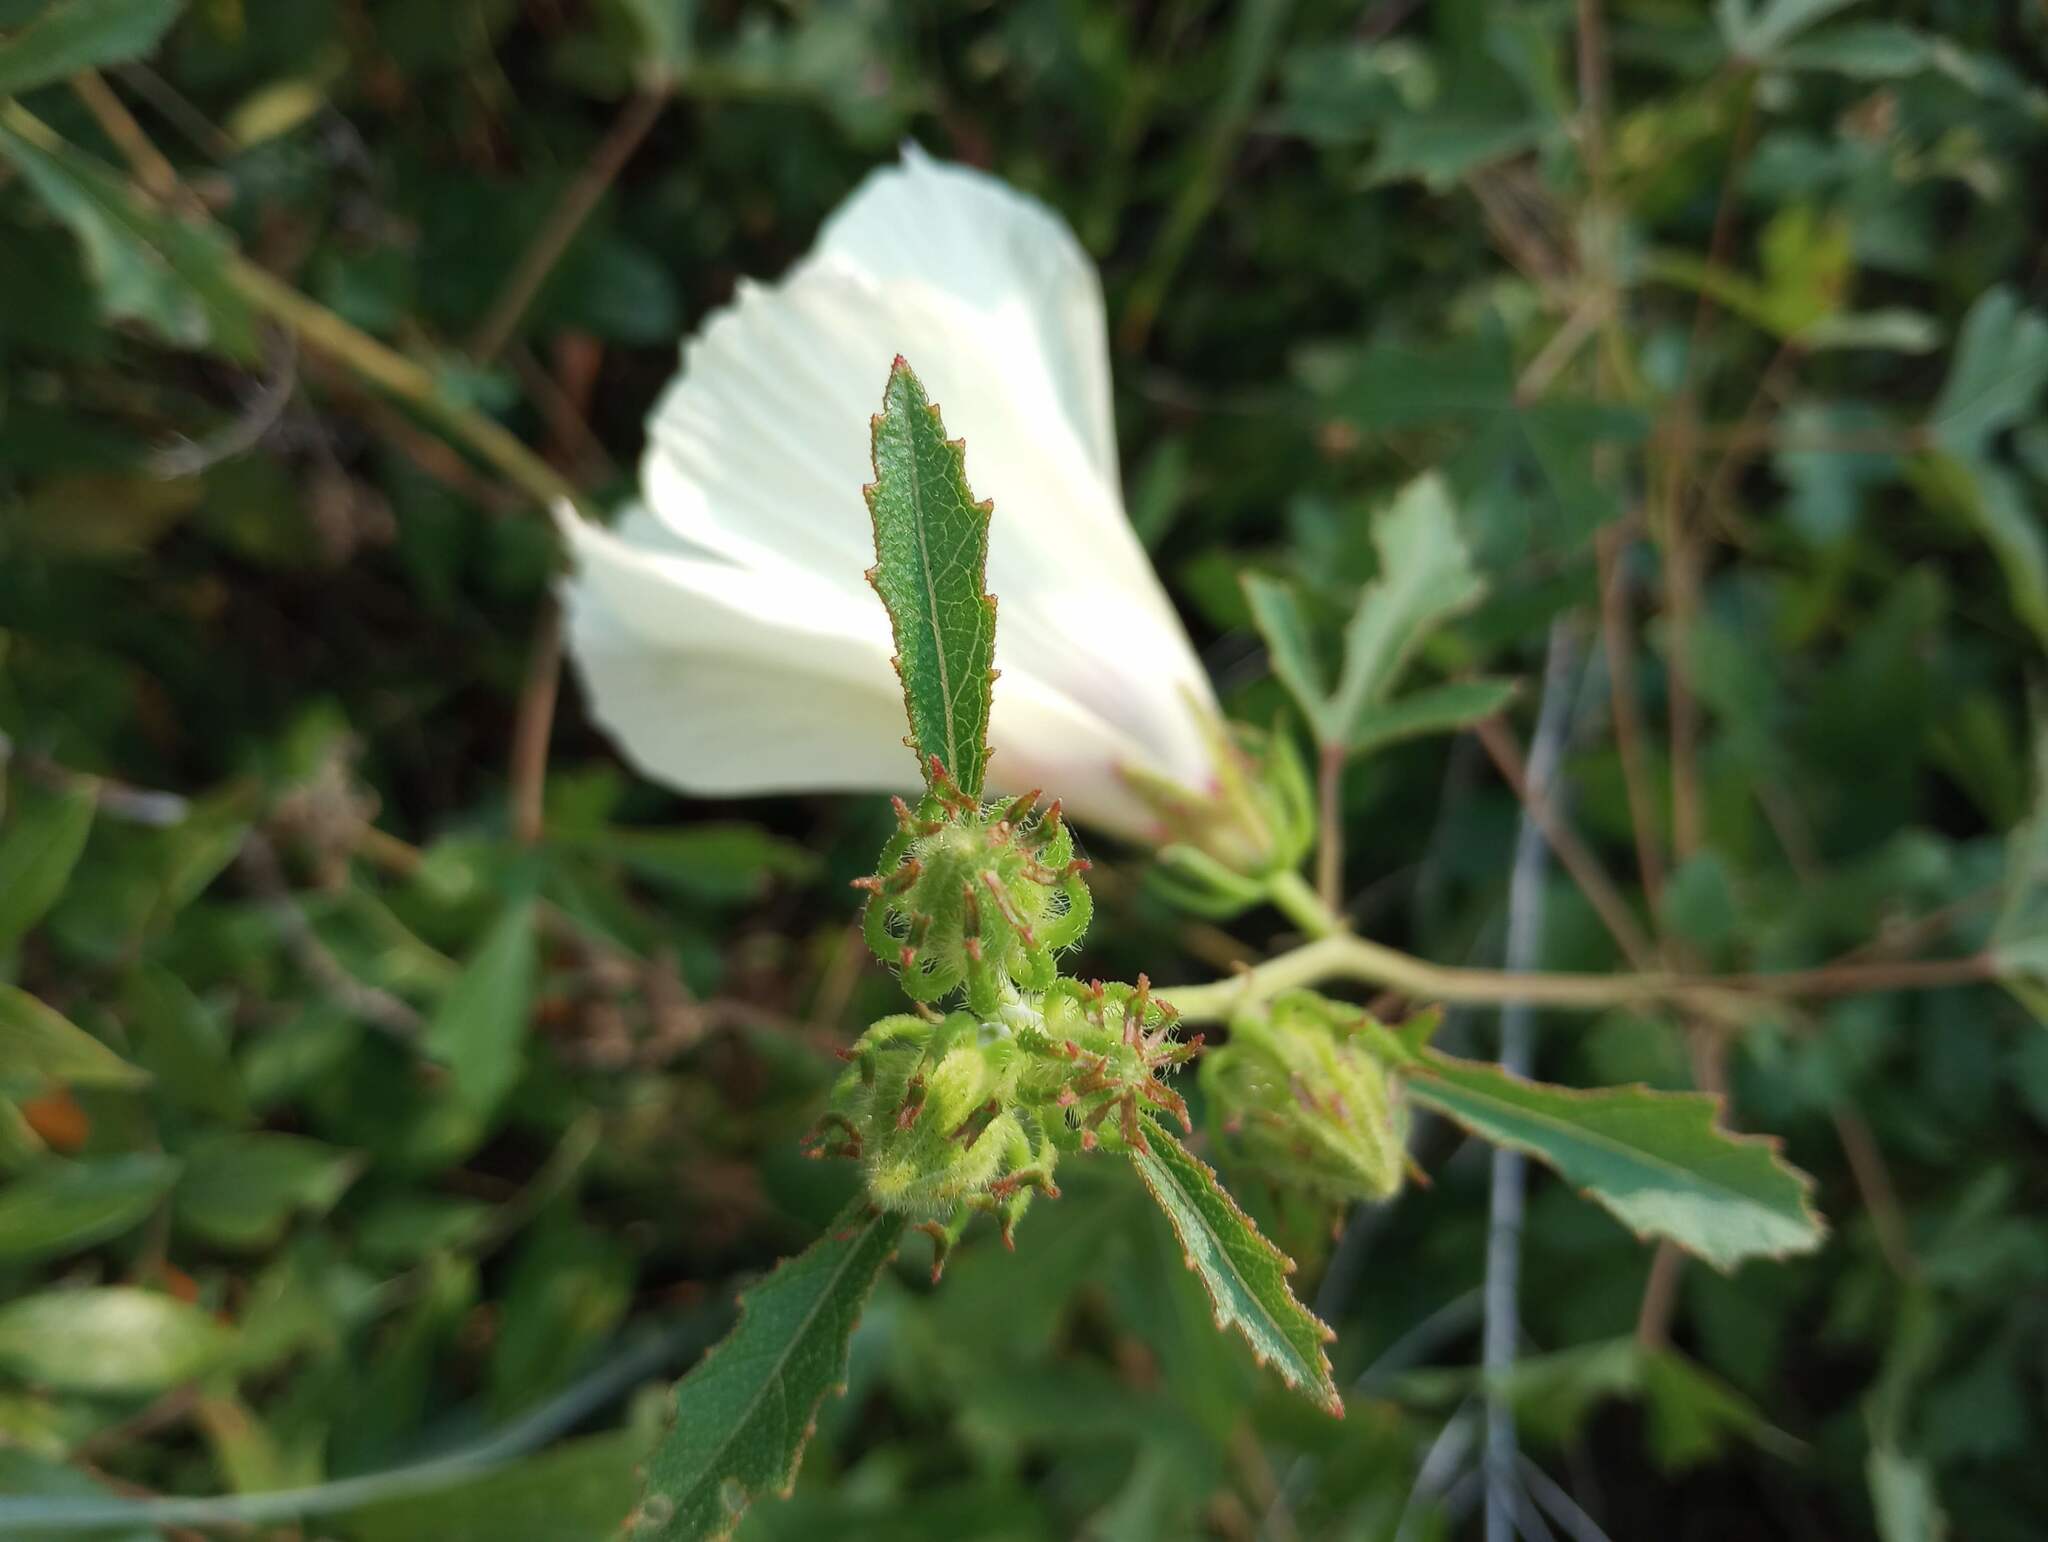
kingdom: Plantae
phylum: Tracheophyta
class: Magnoliopsida
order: Malvales
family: Malvaceae
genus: Hibiscus
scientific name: Hibiscus aculeatus
